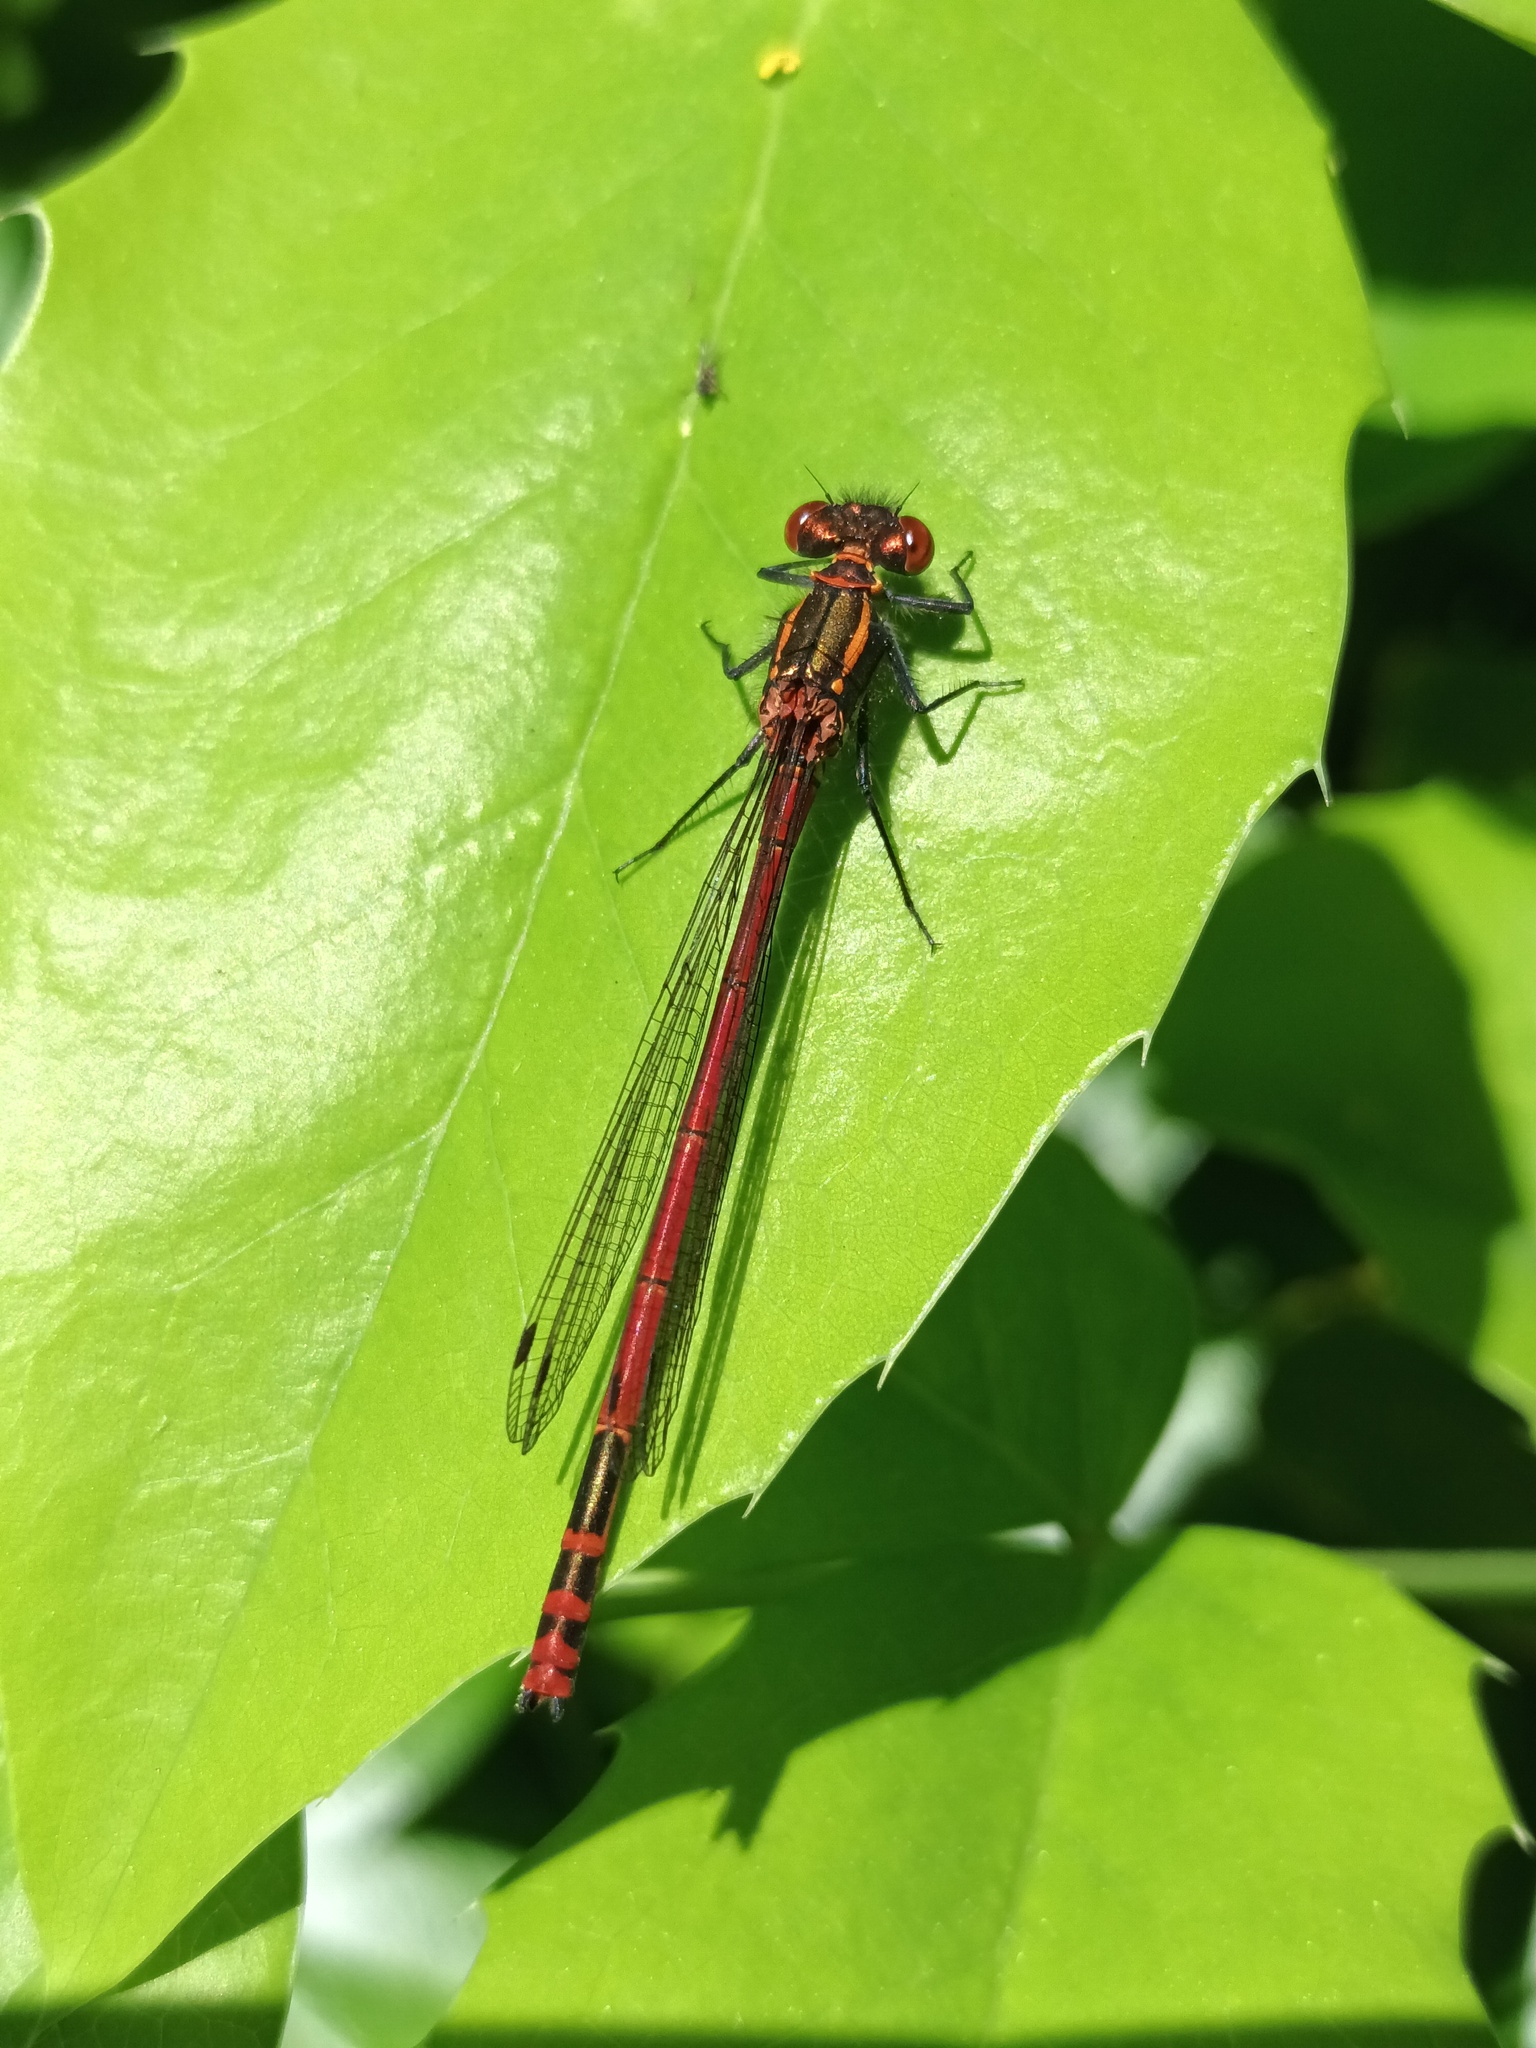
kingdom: Animalia
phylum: Arthropoda
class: Insecta
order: Odonata
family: Coenagrionidae
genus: Pyrrhosoma
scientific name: Pyrrhosoma nymphula
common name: Large red damsel
